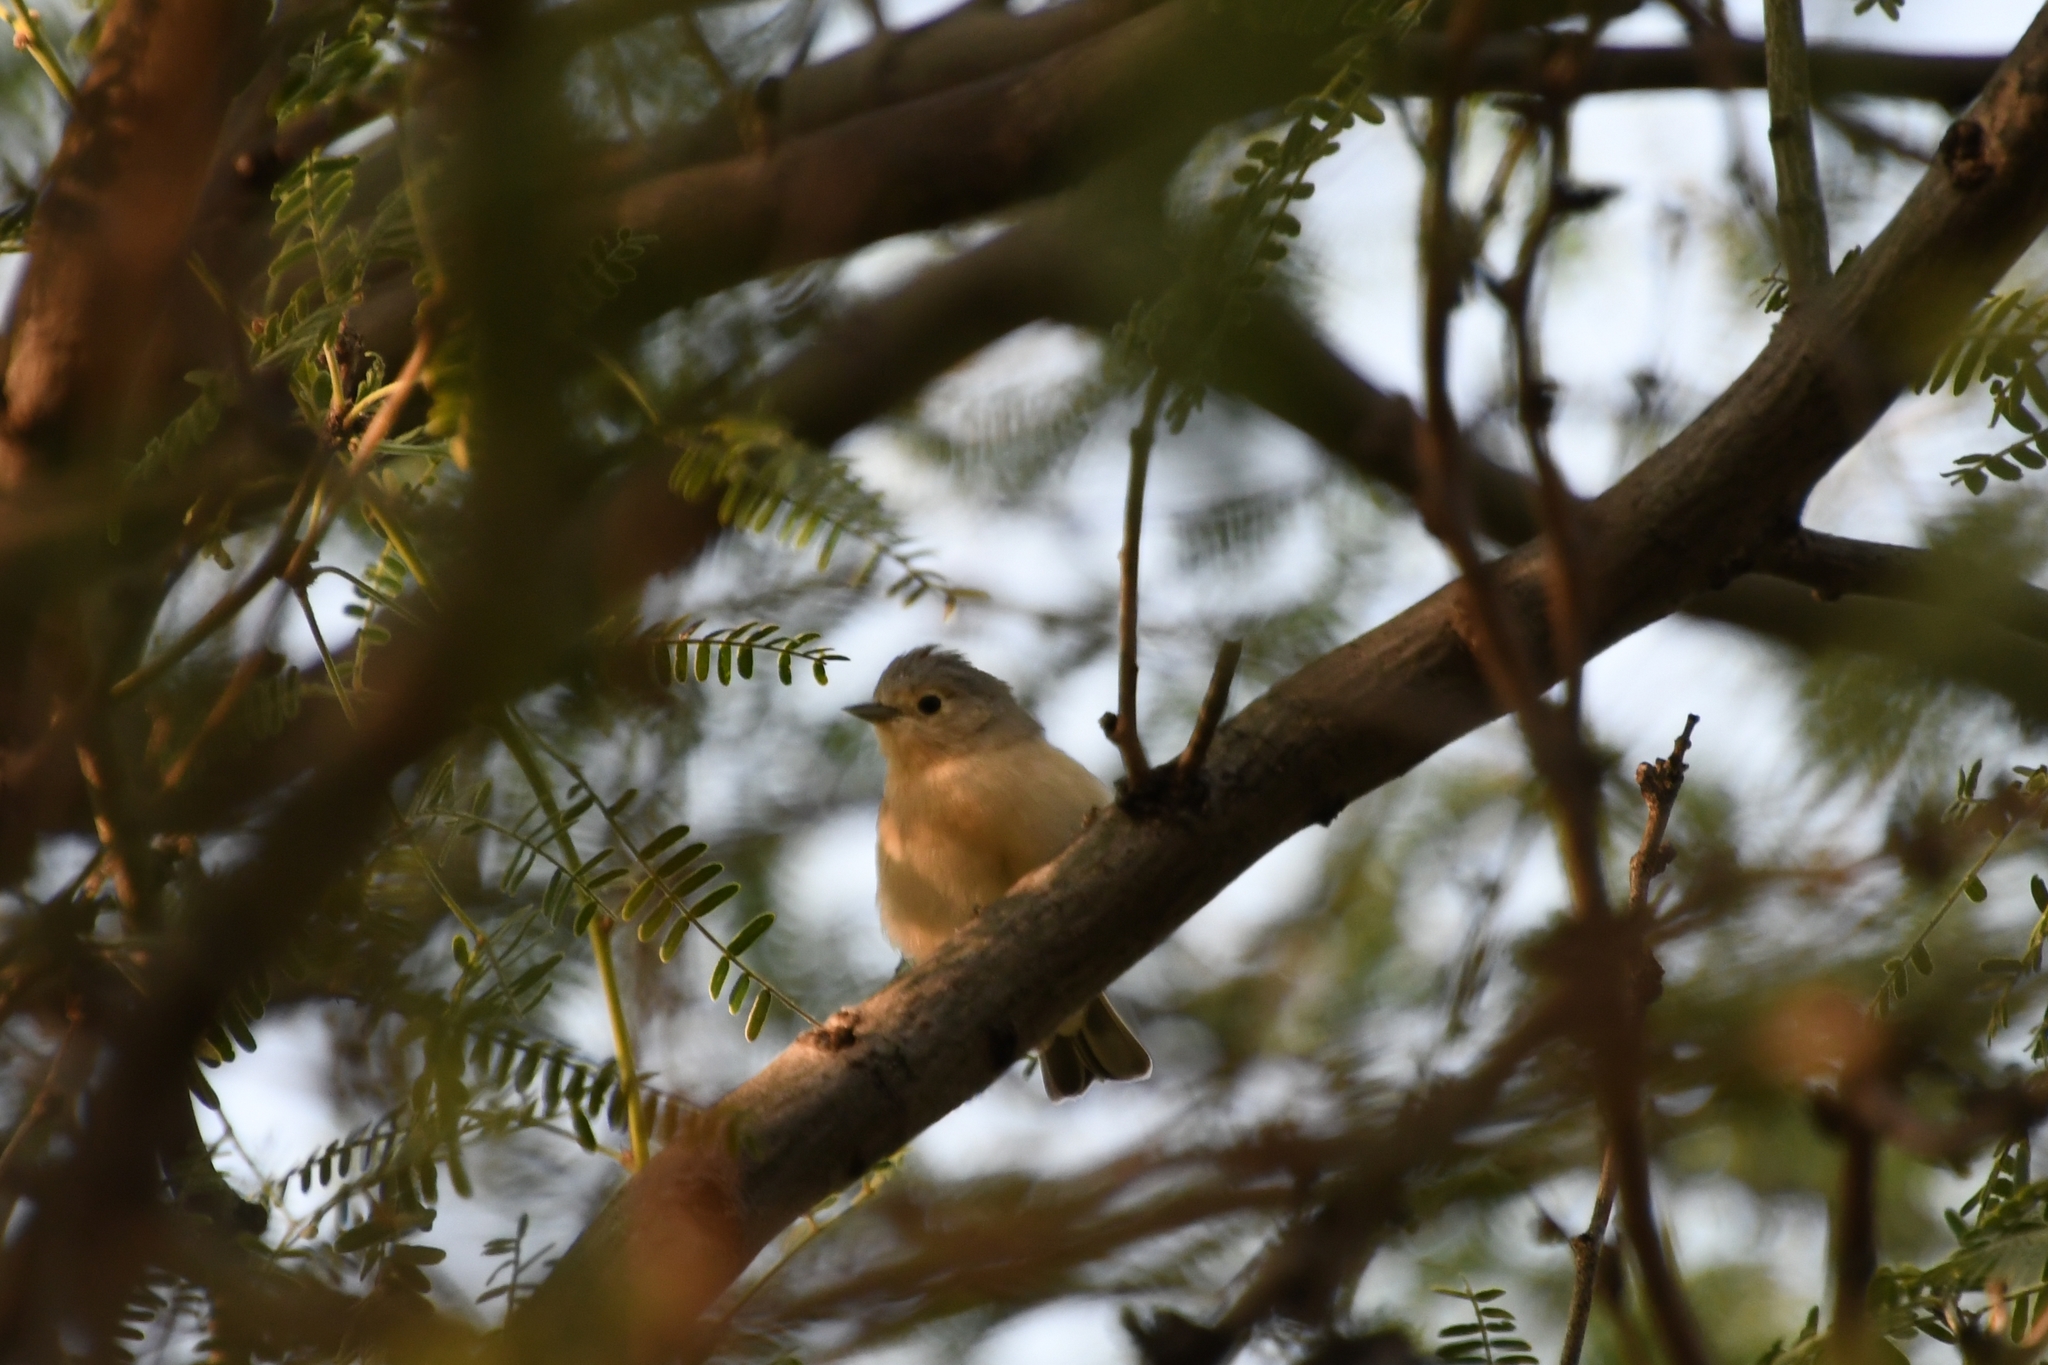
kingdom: Animalia
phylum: Chordata
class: Aves
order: Passeriformes
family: Parulidae
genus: Leiothlypis
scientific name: Leiothlypis luciae
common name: Lucy's warbler
